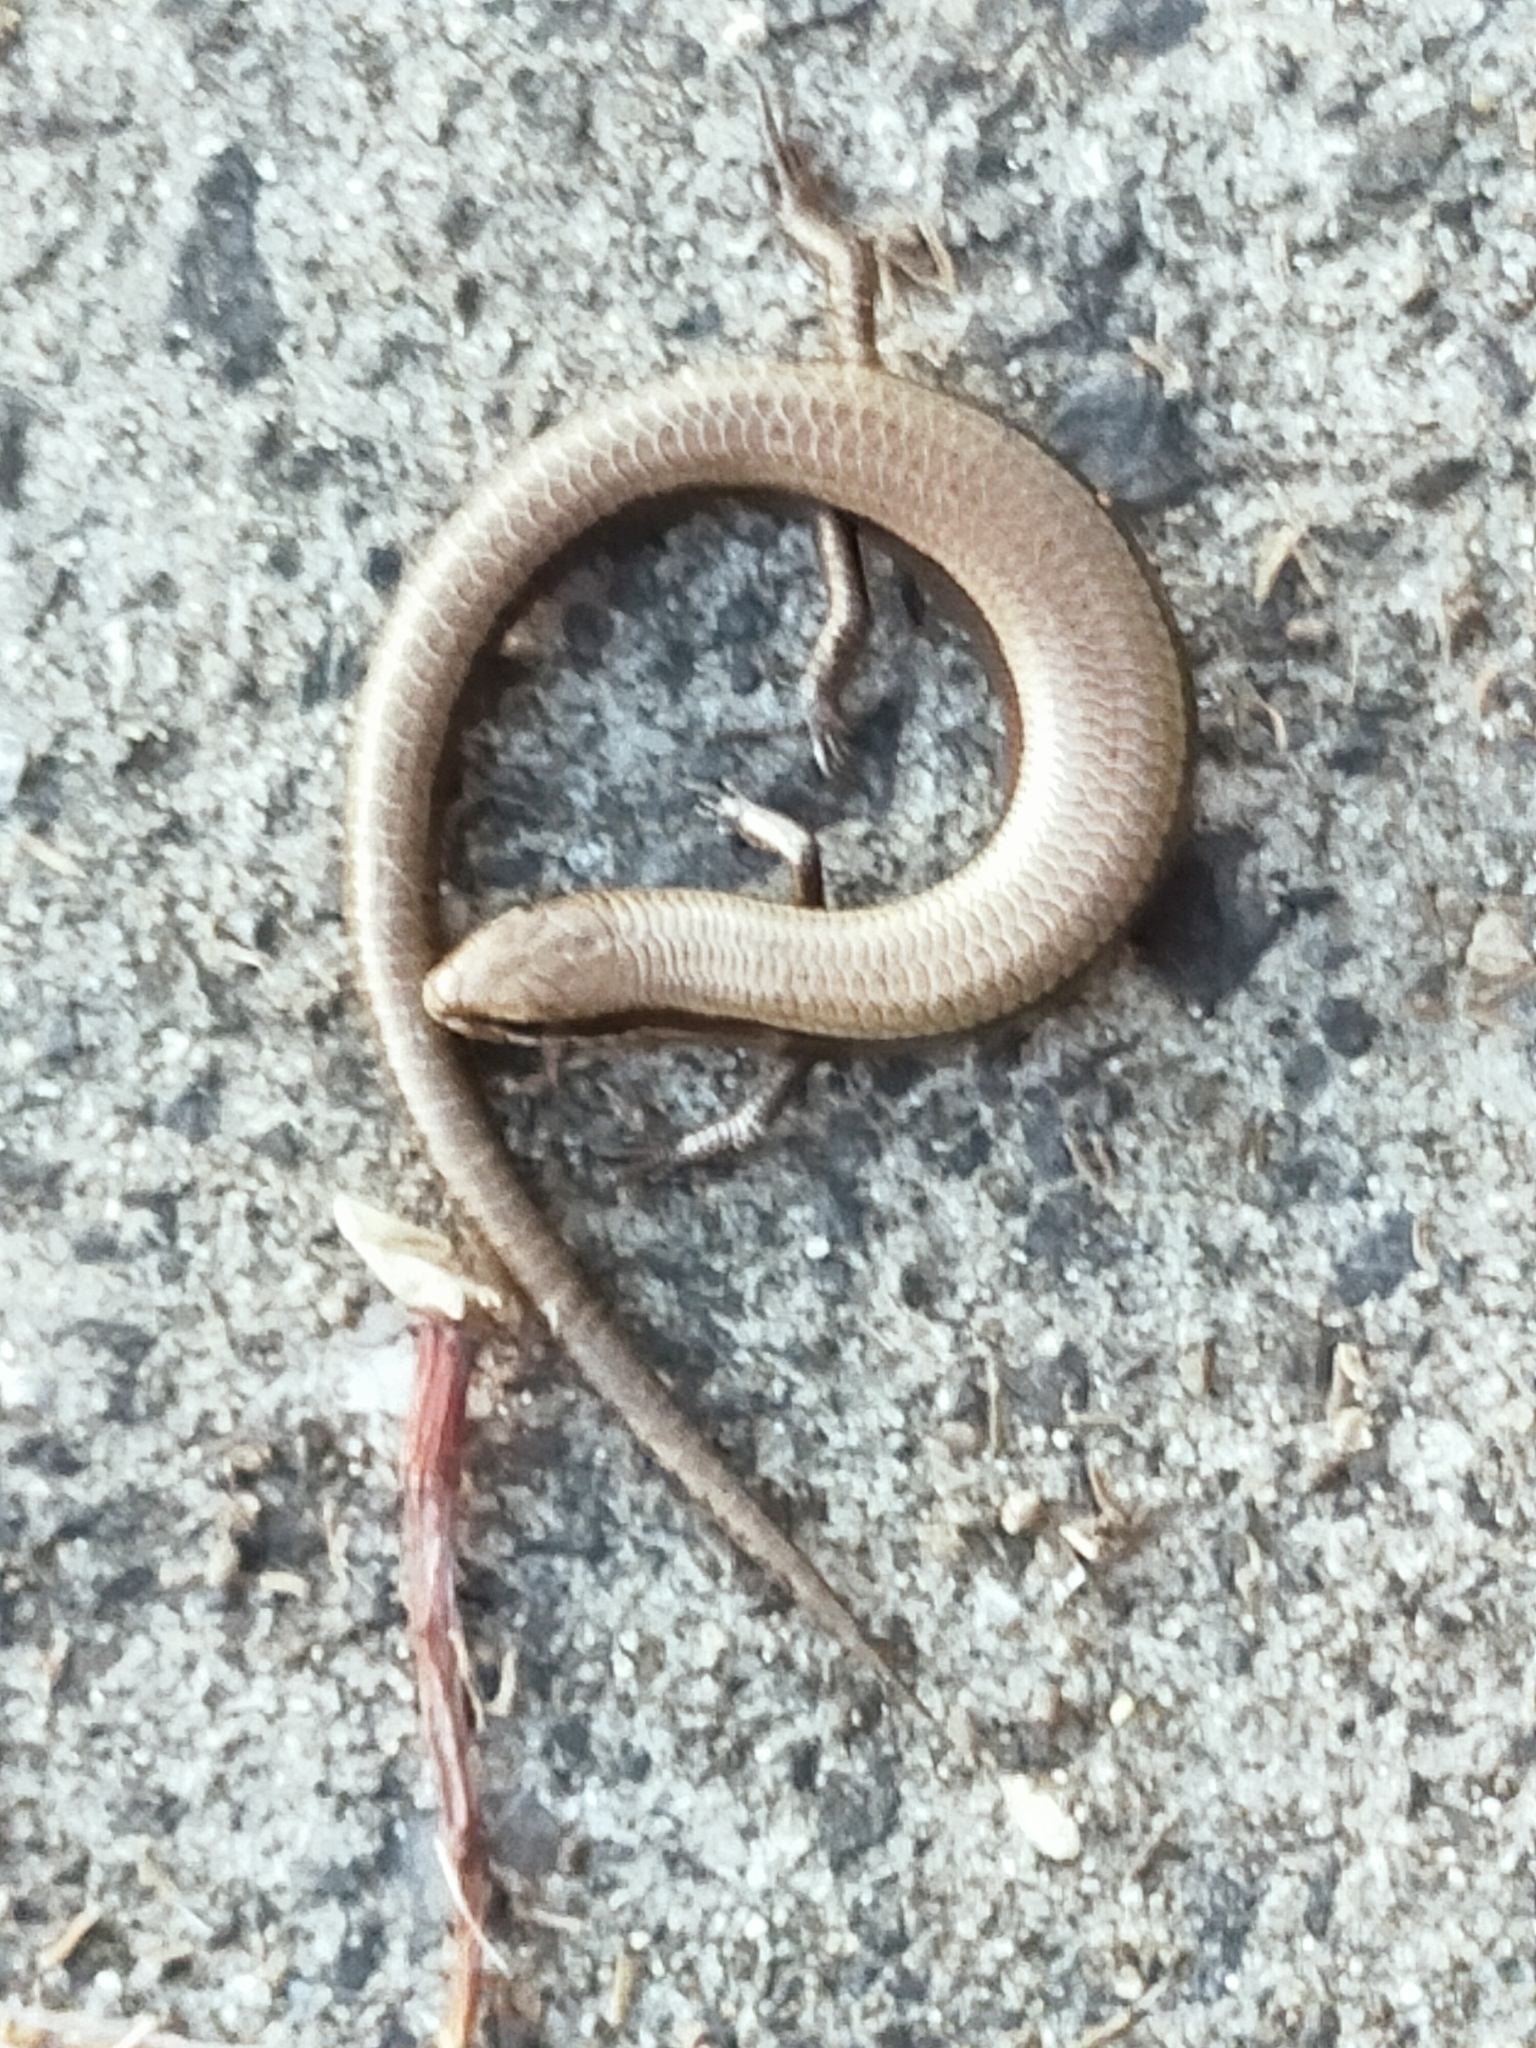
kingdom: Animalia
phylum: Chordata
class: Squamata
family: Scincidae
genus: Ablepharus
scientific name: Ablepharus kitaibelii
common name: Juniper skink
